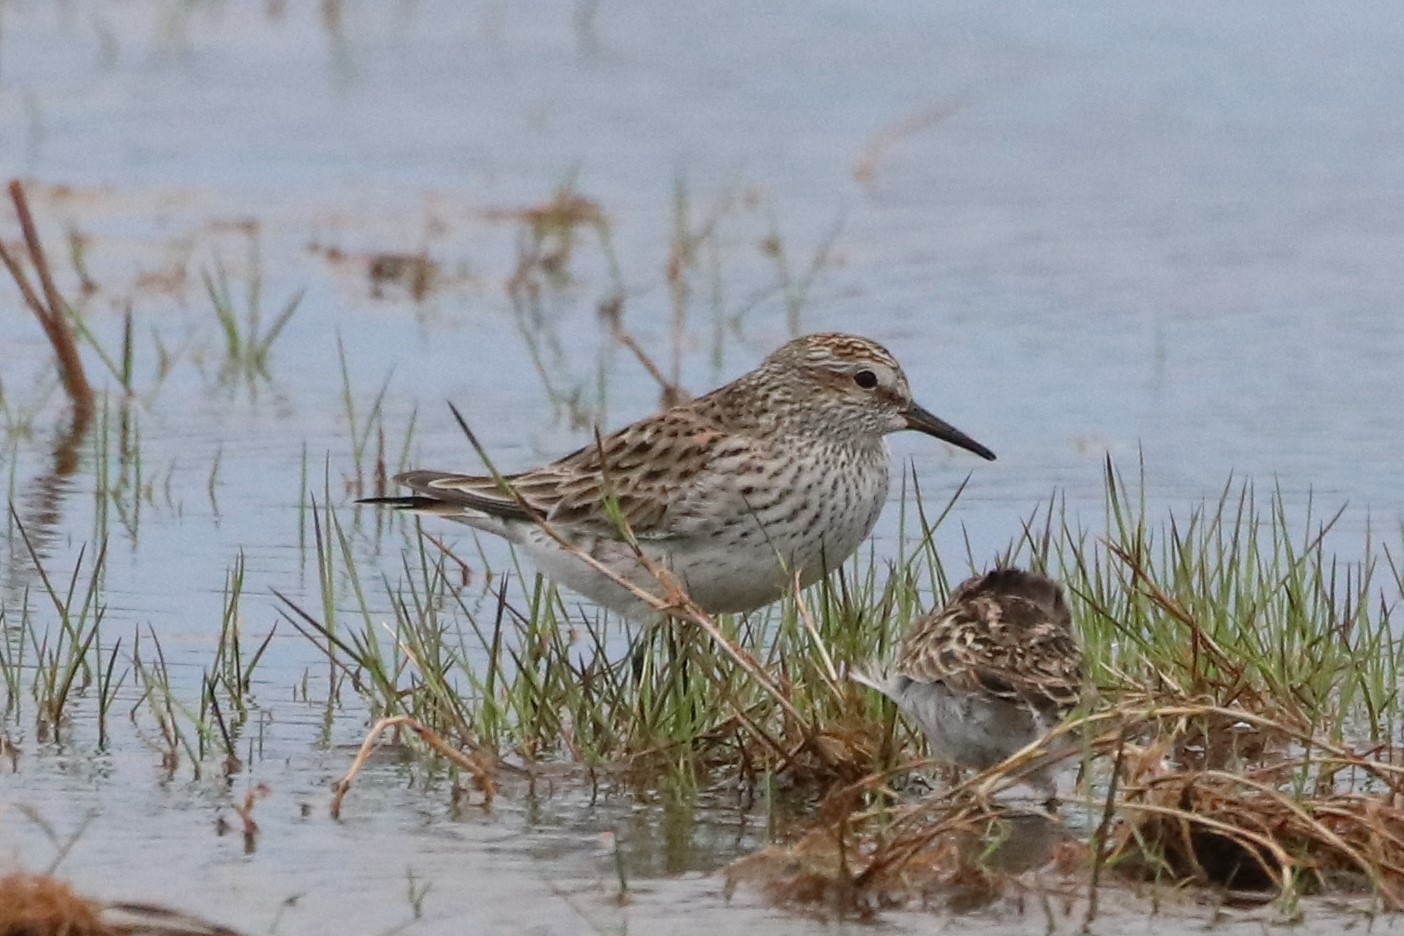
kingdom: Animalia
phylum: Chordata
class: Aves
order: Charadriiformes
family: Scolopacidae
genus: Calidris
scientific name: Calidris fuscicollis
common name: White-rumped sandpiper
